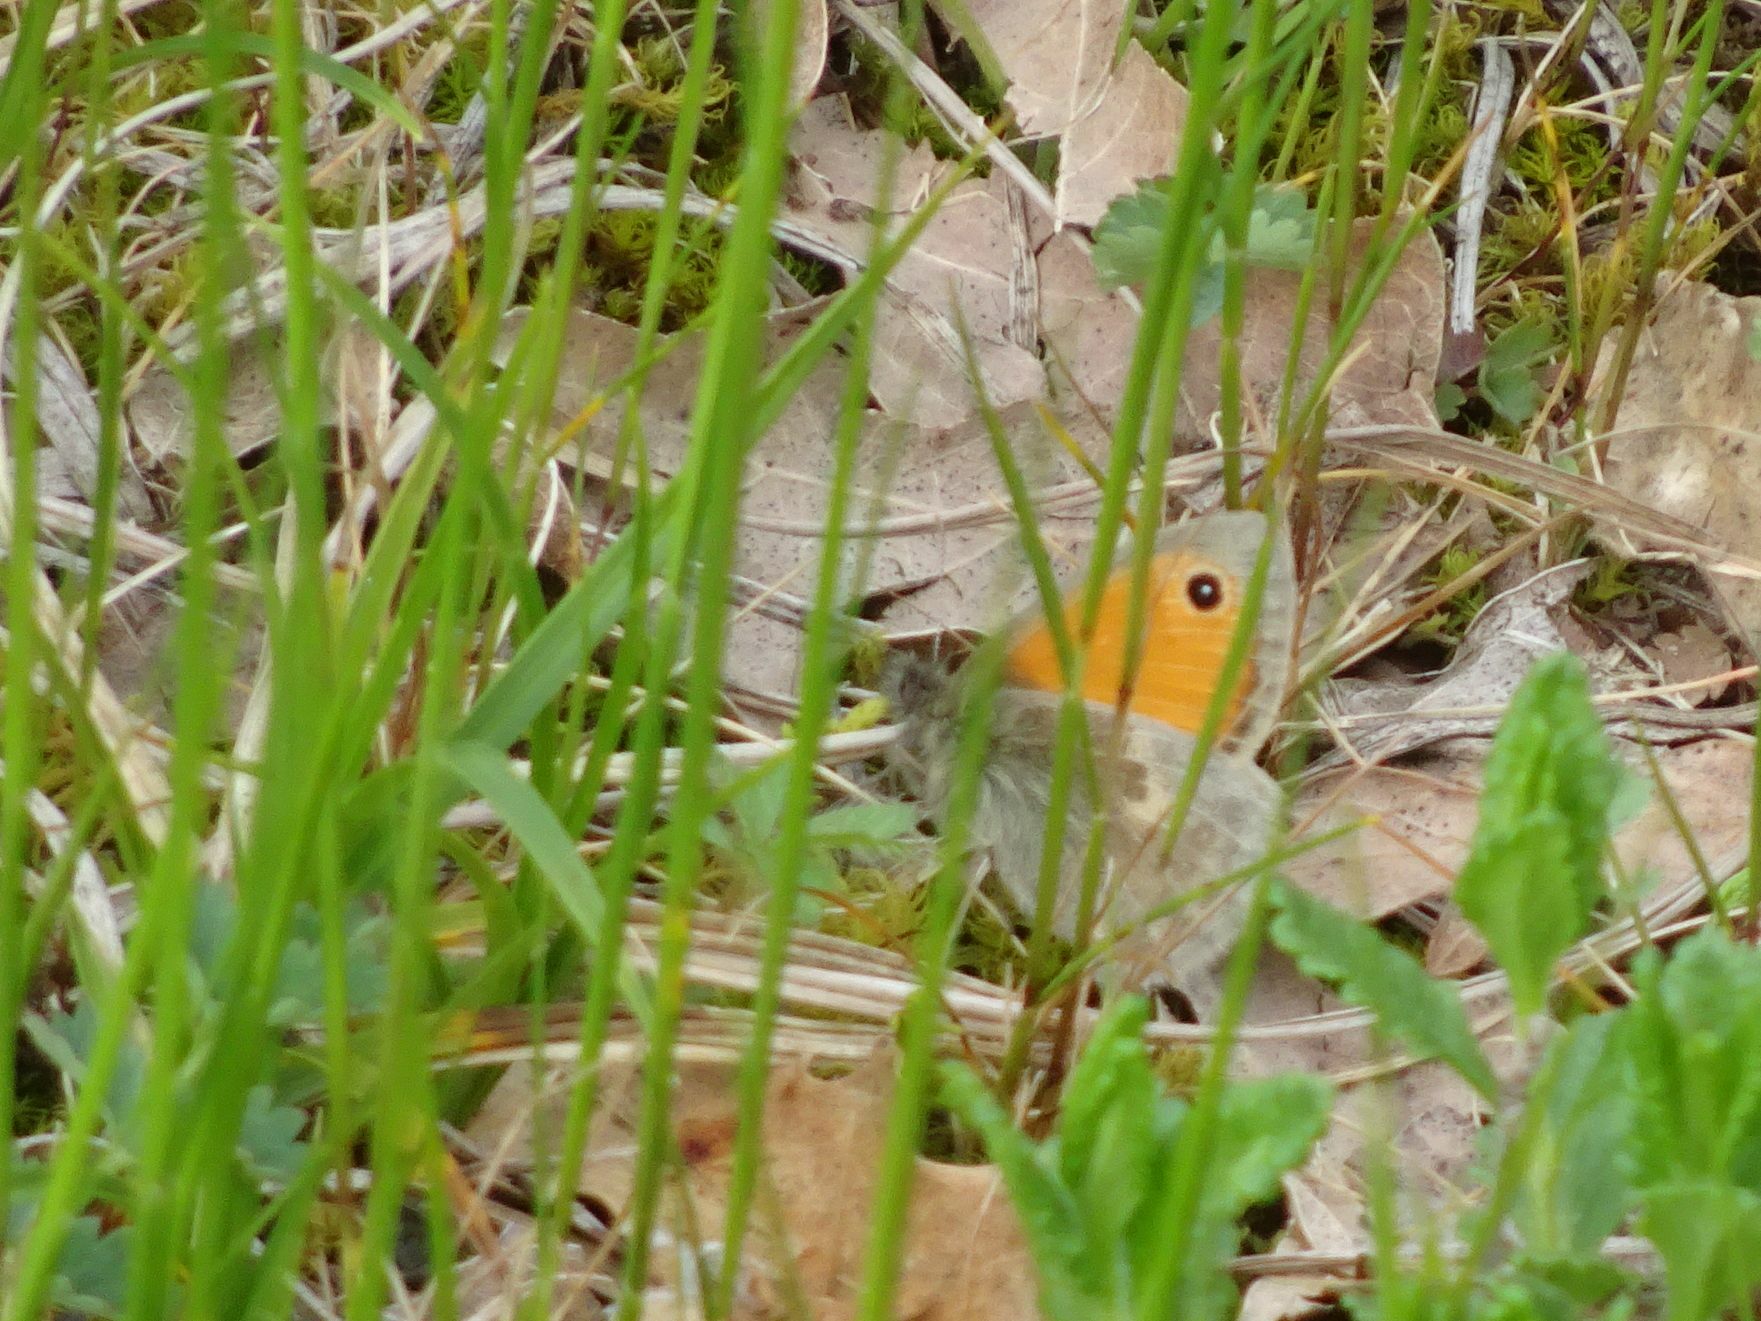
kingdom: Animalia
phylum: Arthropoda
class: Insecta
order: Lepidoptera
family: Nymphalidae
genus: Coenonympha
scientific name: Coenonympha pamphilus
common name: Small heath
